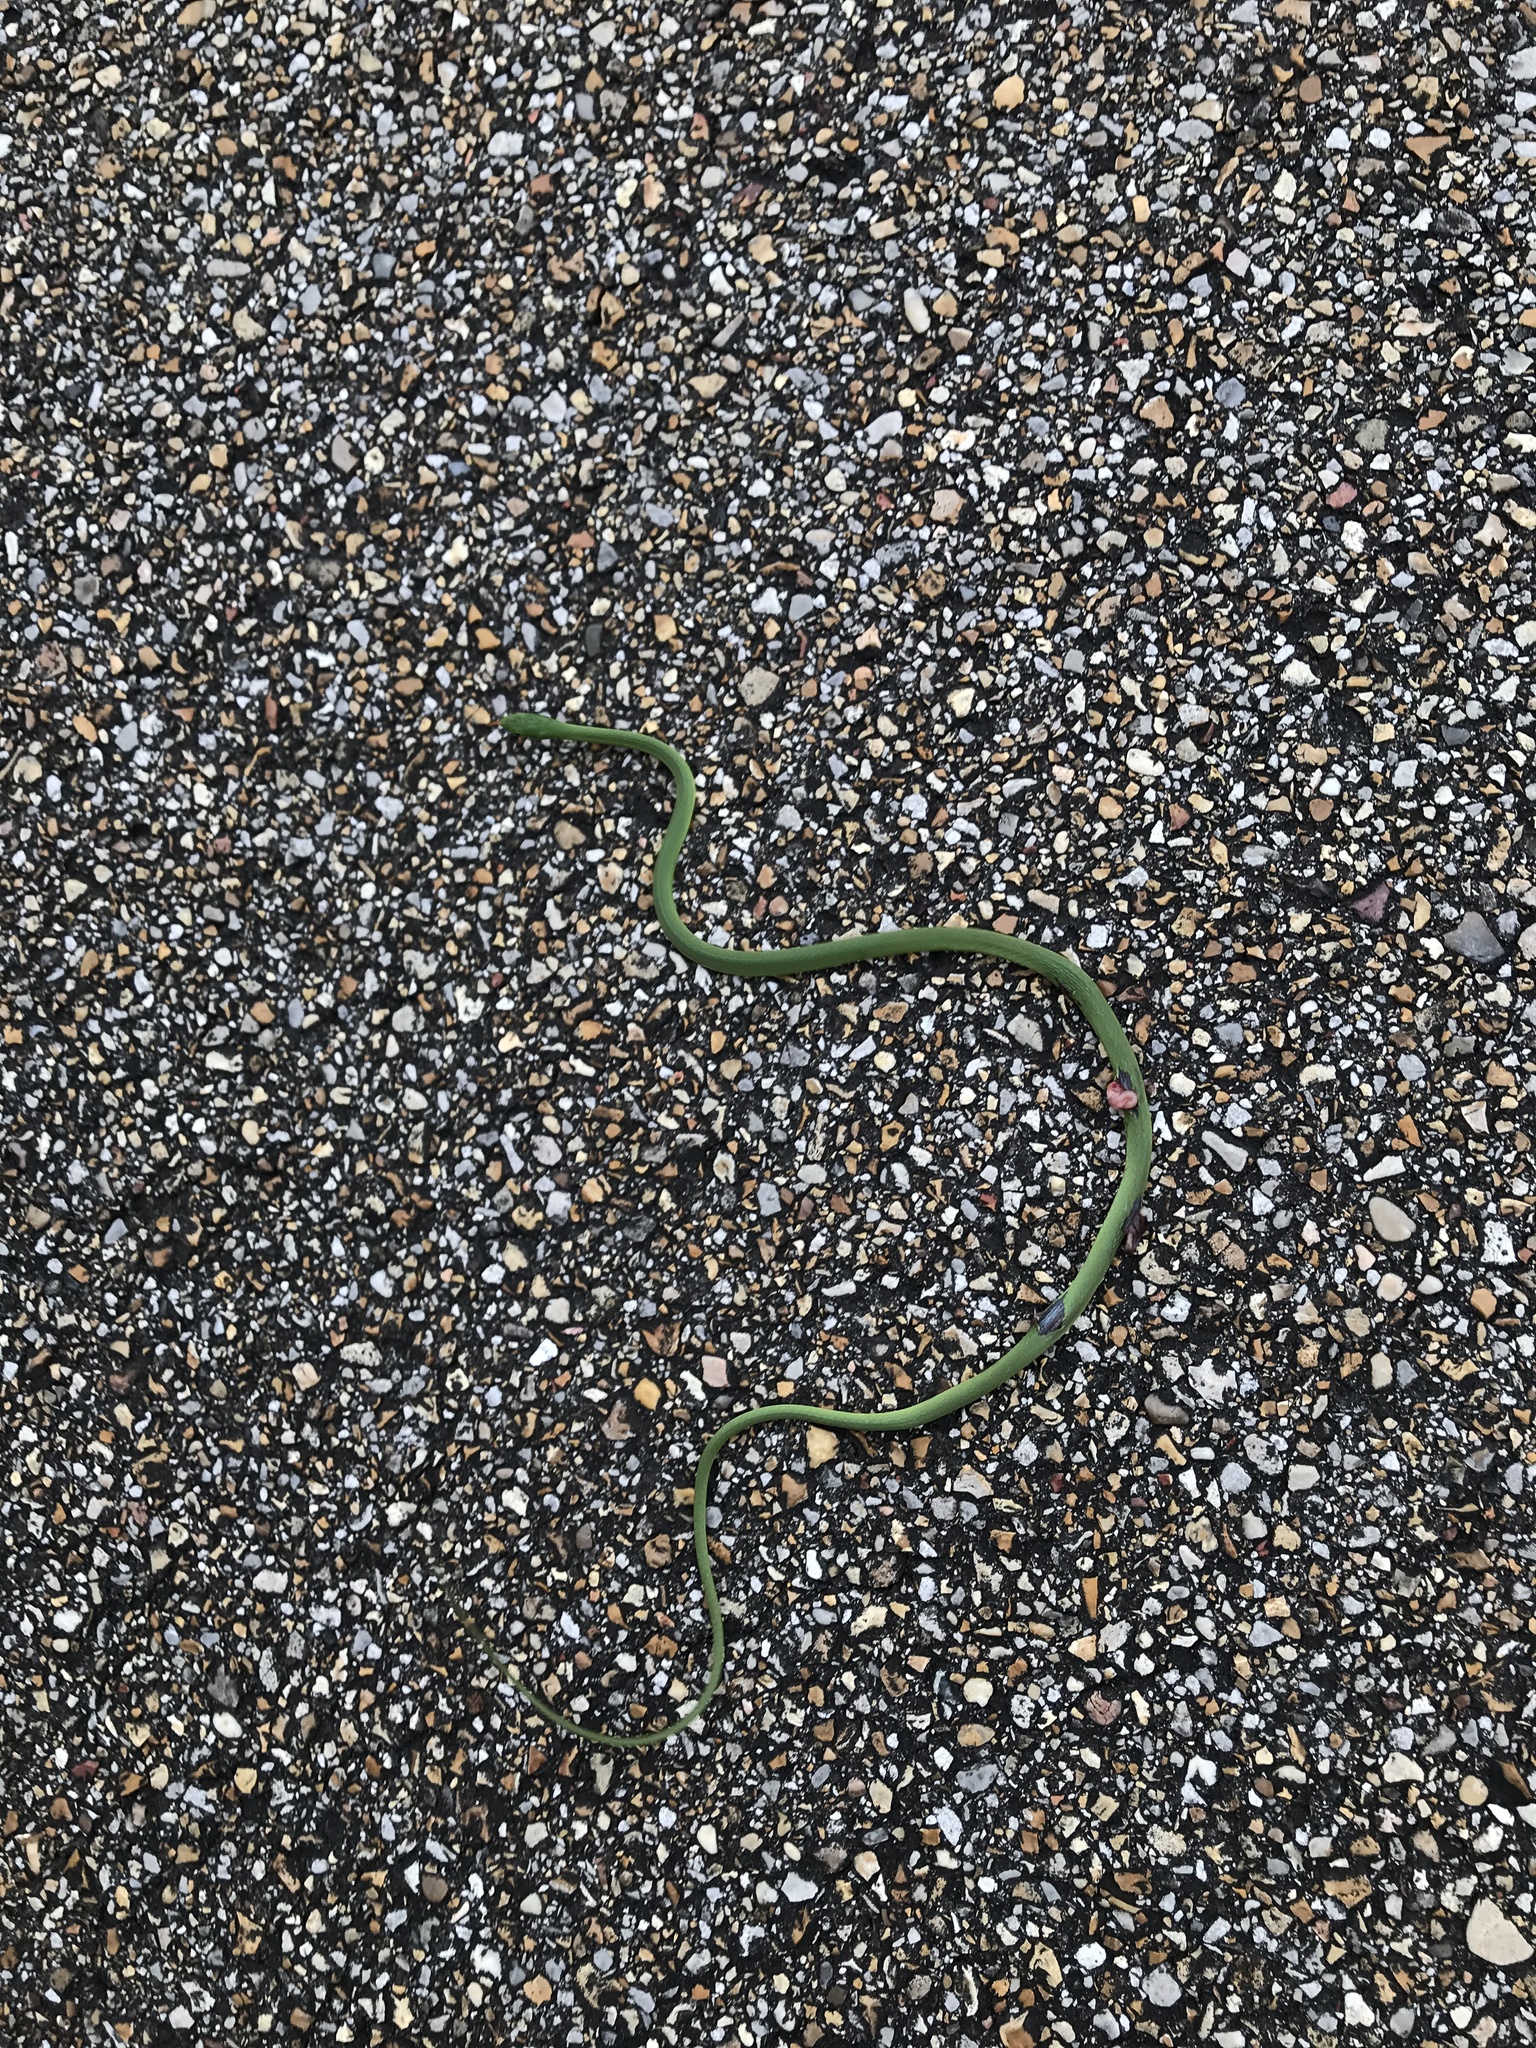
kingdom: Animalia
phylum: Chordata
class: Squamata
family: Colubridae
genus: Opheodrys
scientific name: Opheodrys aestivus
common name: Rough greensnake
